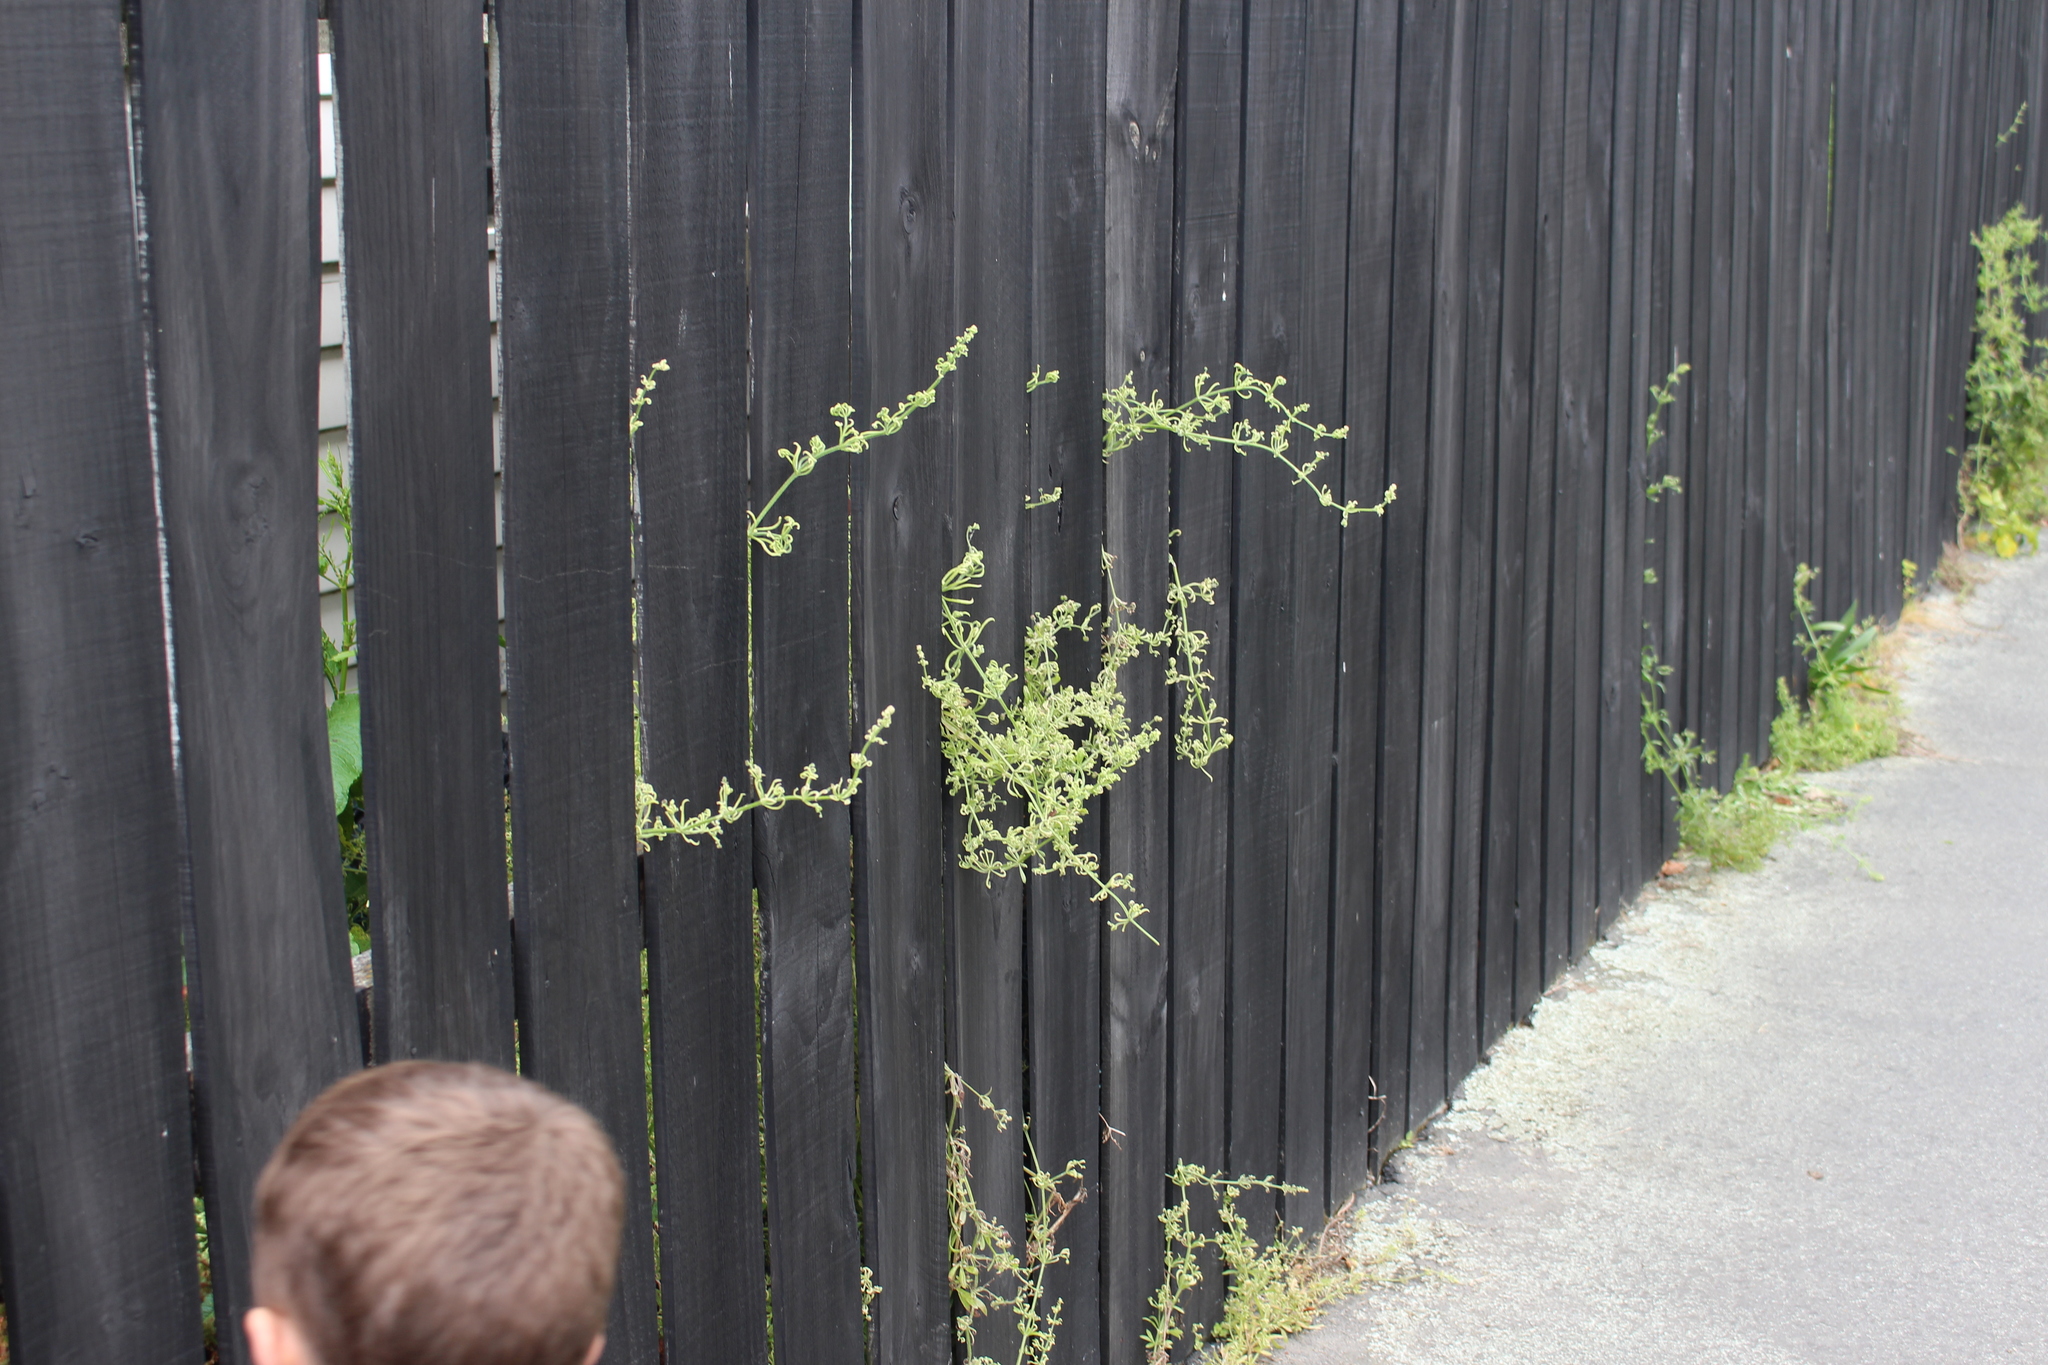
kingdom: Animalia
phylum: Arthropoda
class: Arachnida
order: Trombidiformes
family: Eriophyidae
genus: Cecidophyes
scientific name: Cecidophyes rouhollahi
